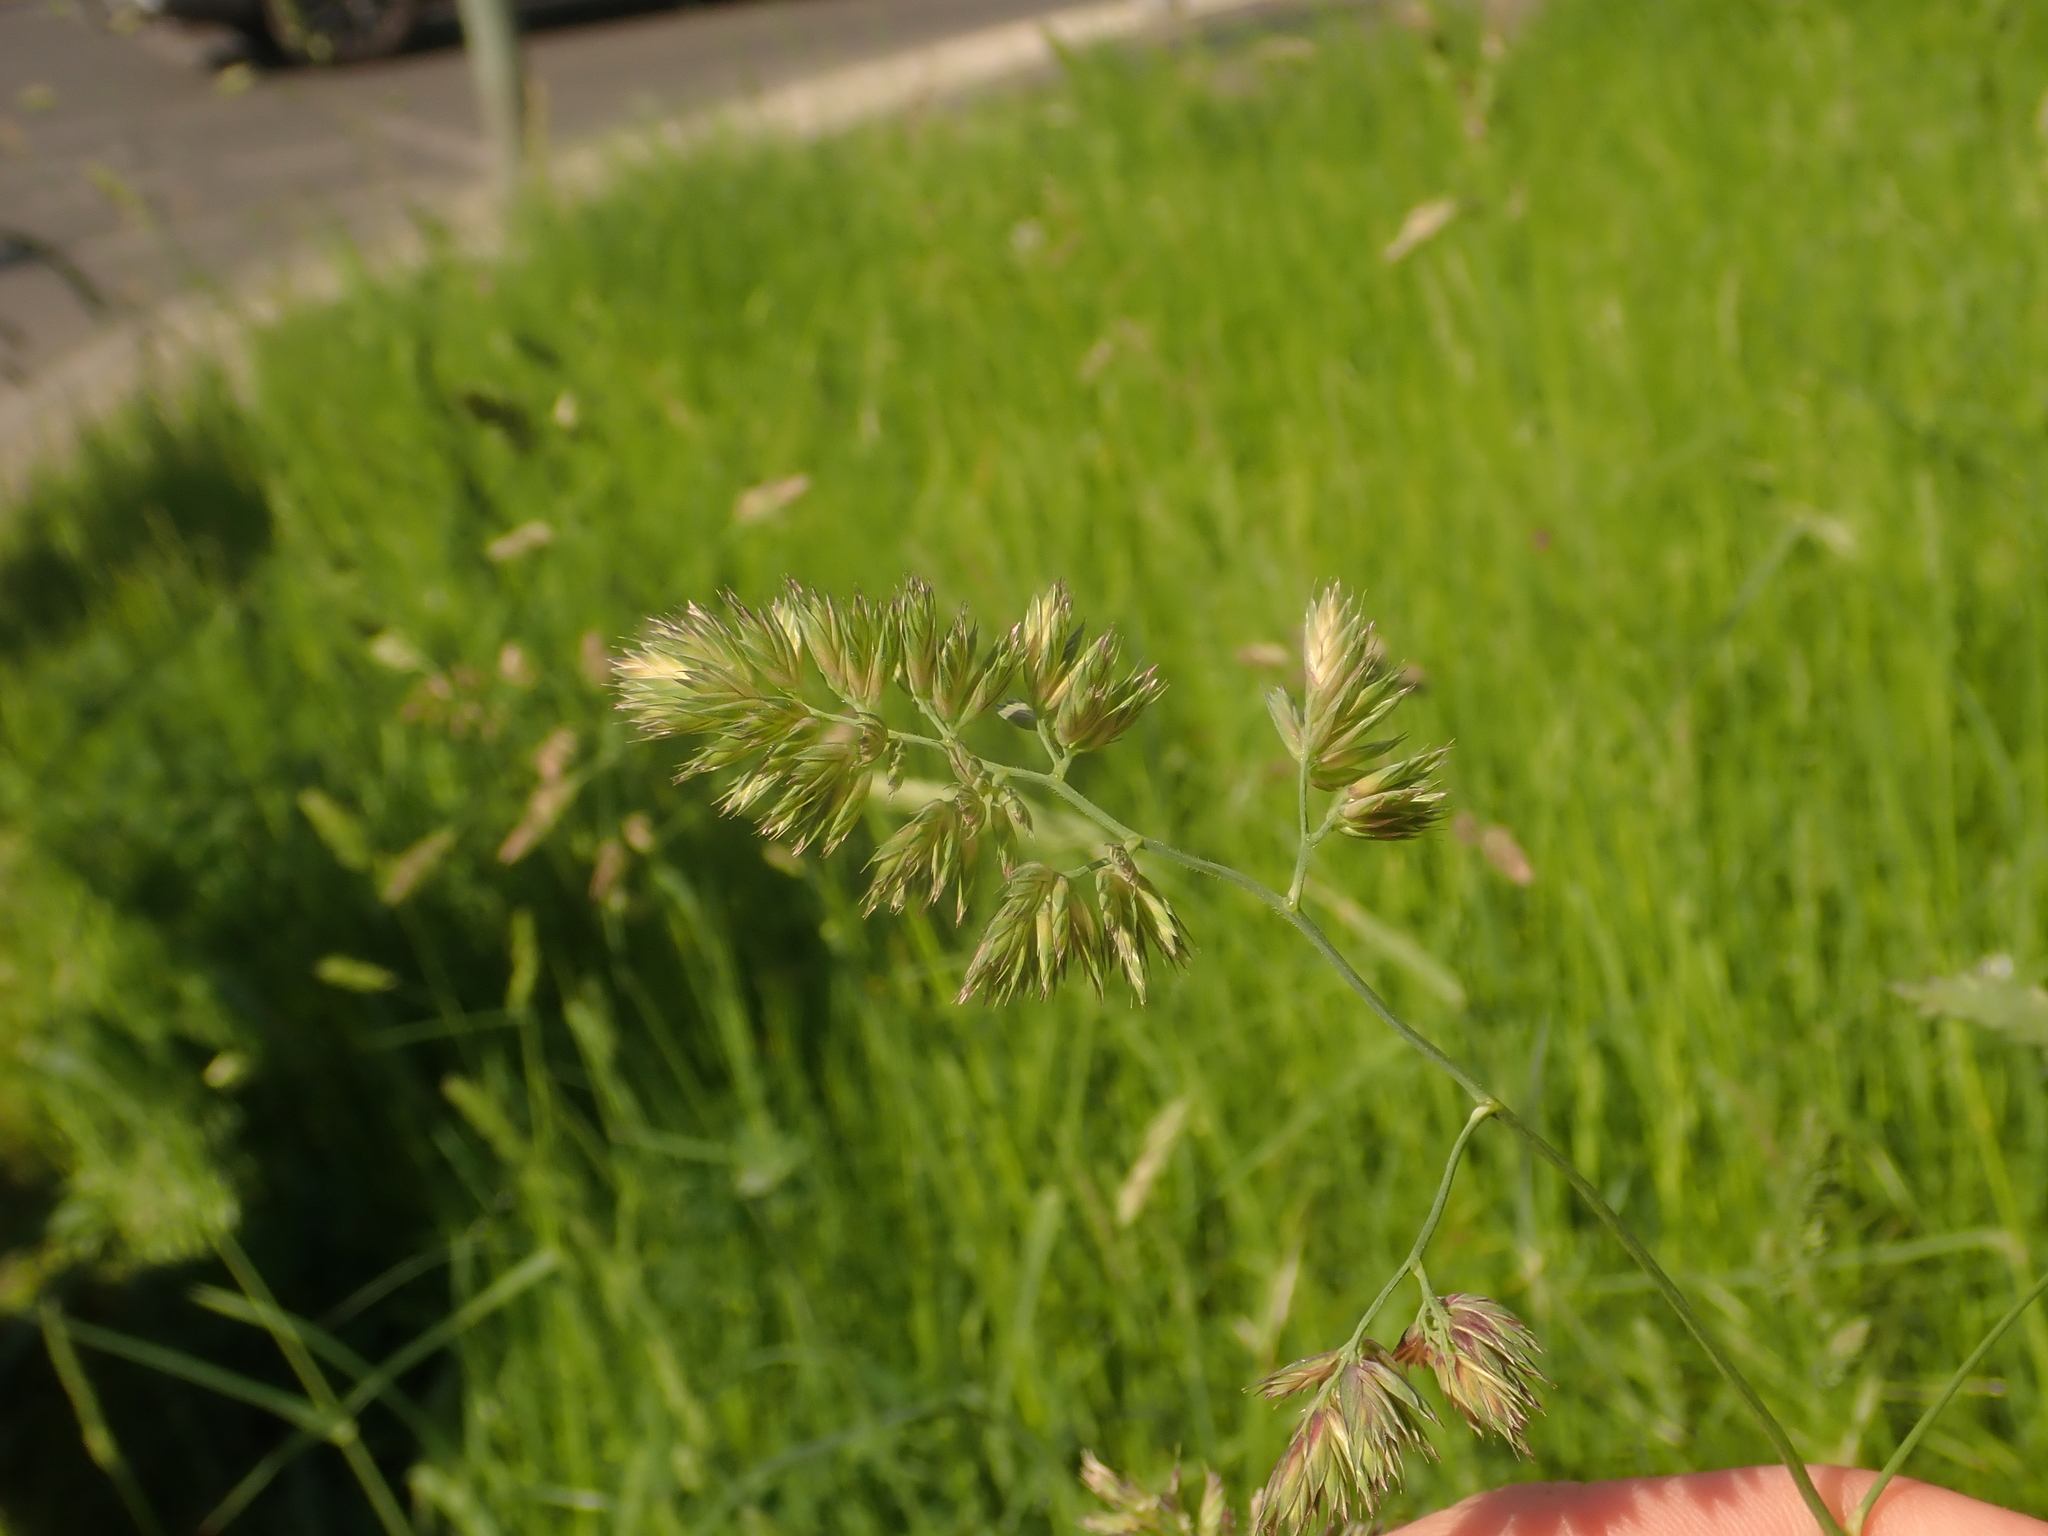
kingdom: Plantae
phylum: Tracheophyta
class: Liliopsida
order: Poales
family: Poaceae
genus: Dactylis
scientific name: Dactylis glomerata
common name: Orchardgrass
